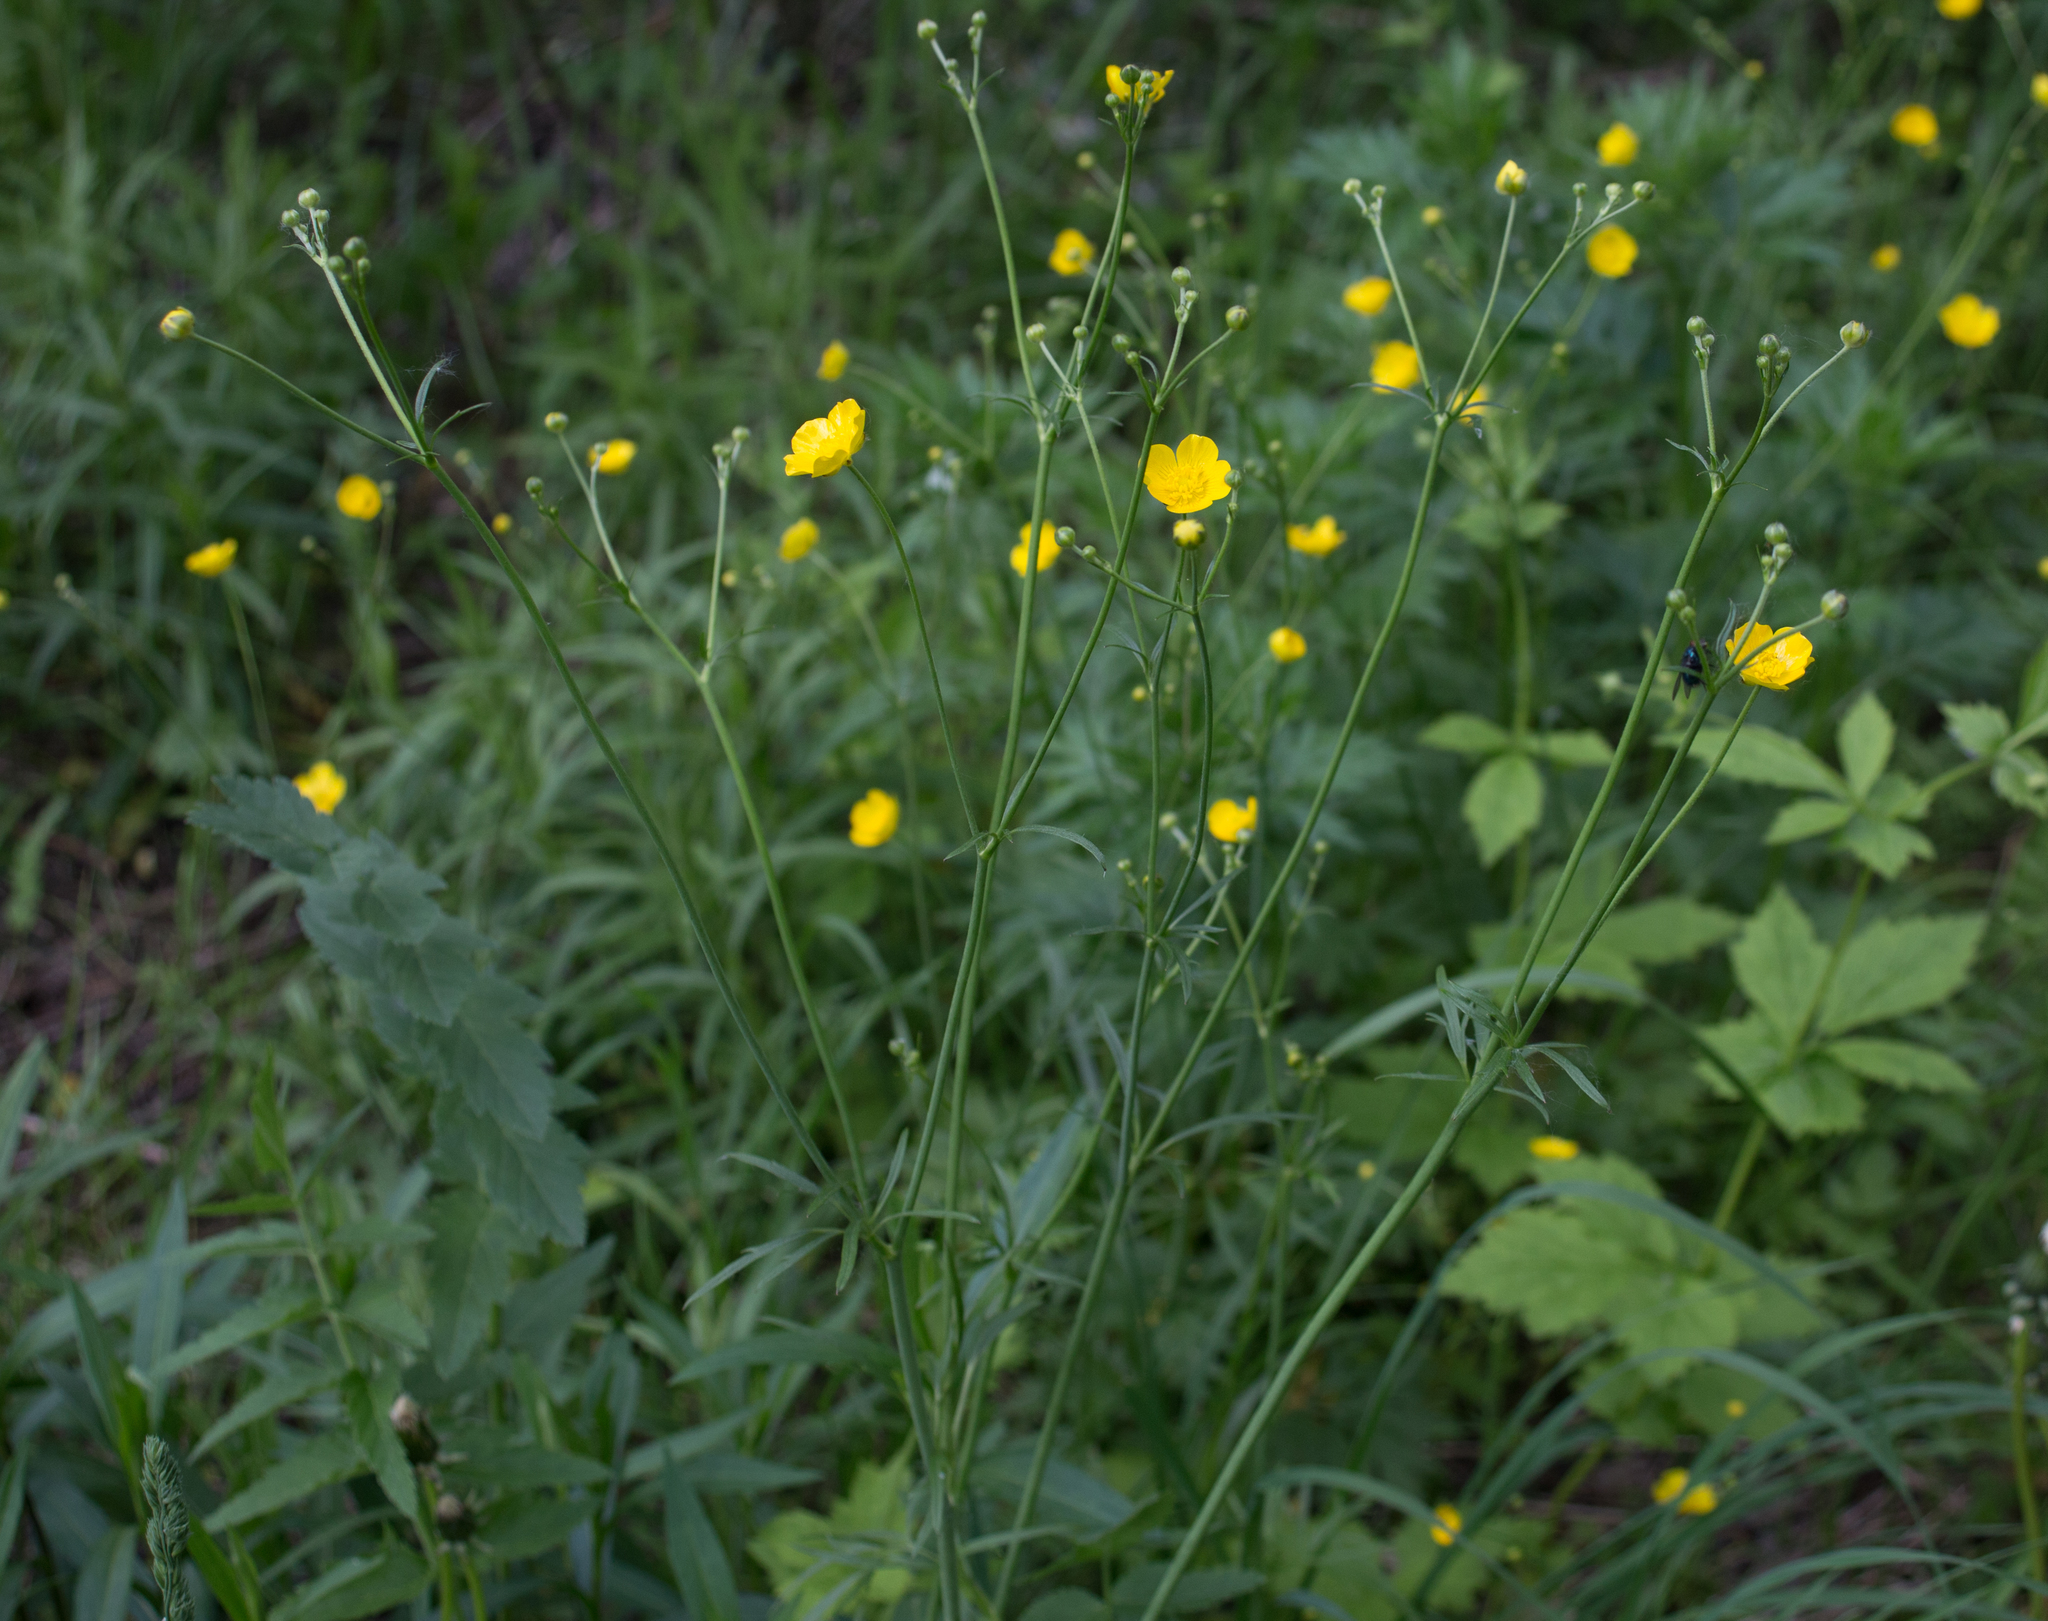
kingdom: Plantae
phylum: Tracheophyta
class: Magnoliopsida
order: Ranunculales
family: Ranunculaceae
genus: Ranunculus
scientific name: Ranunculus acris
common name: Meadow buttercup
